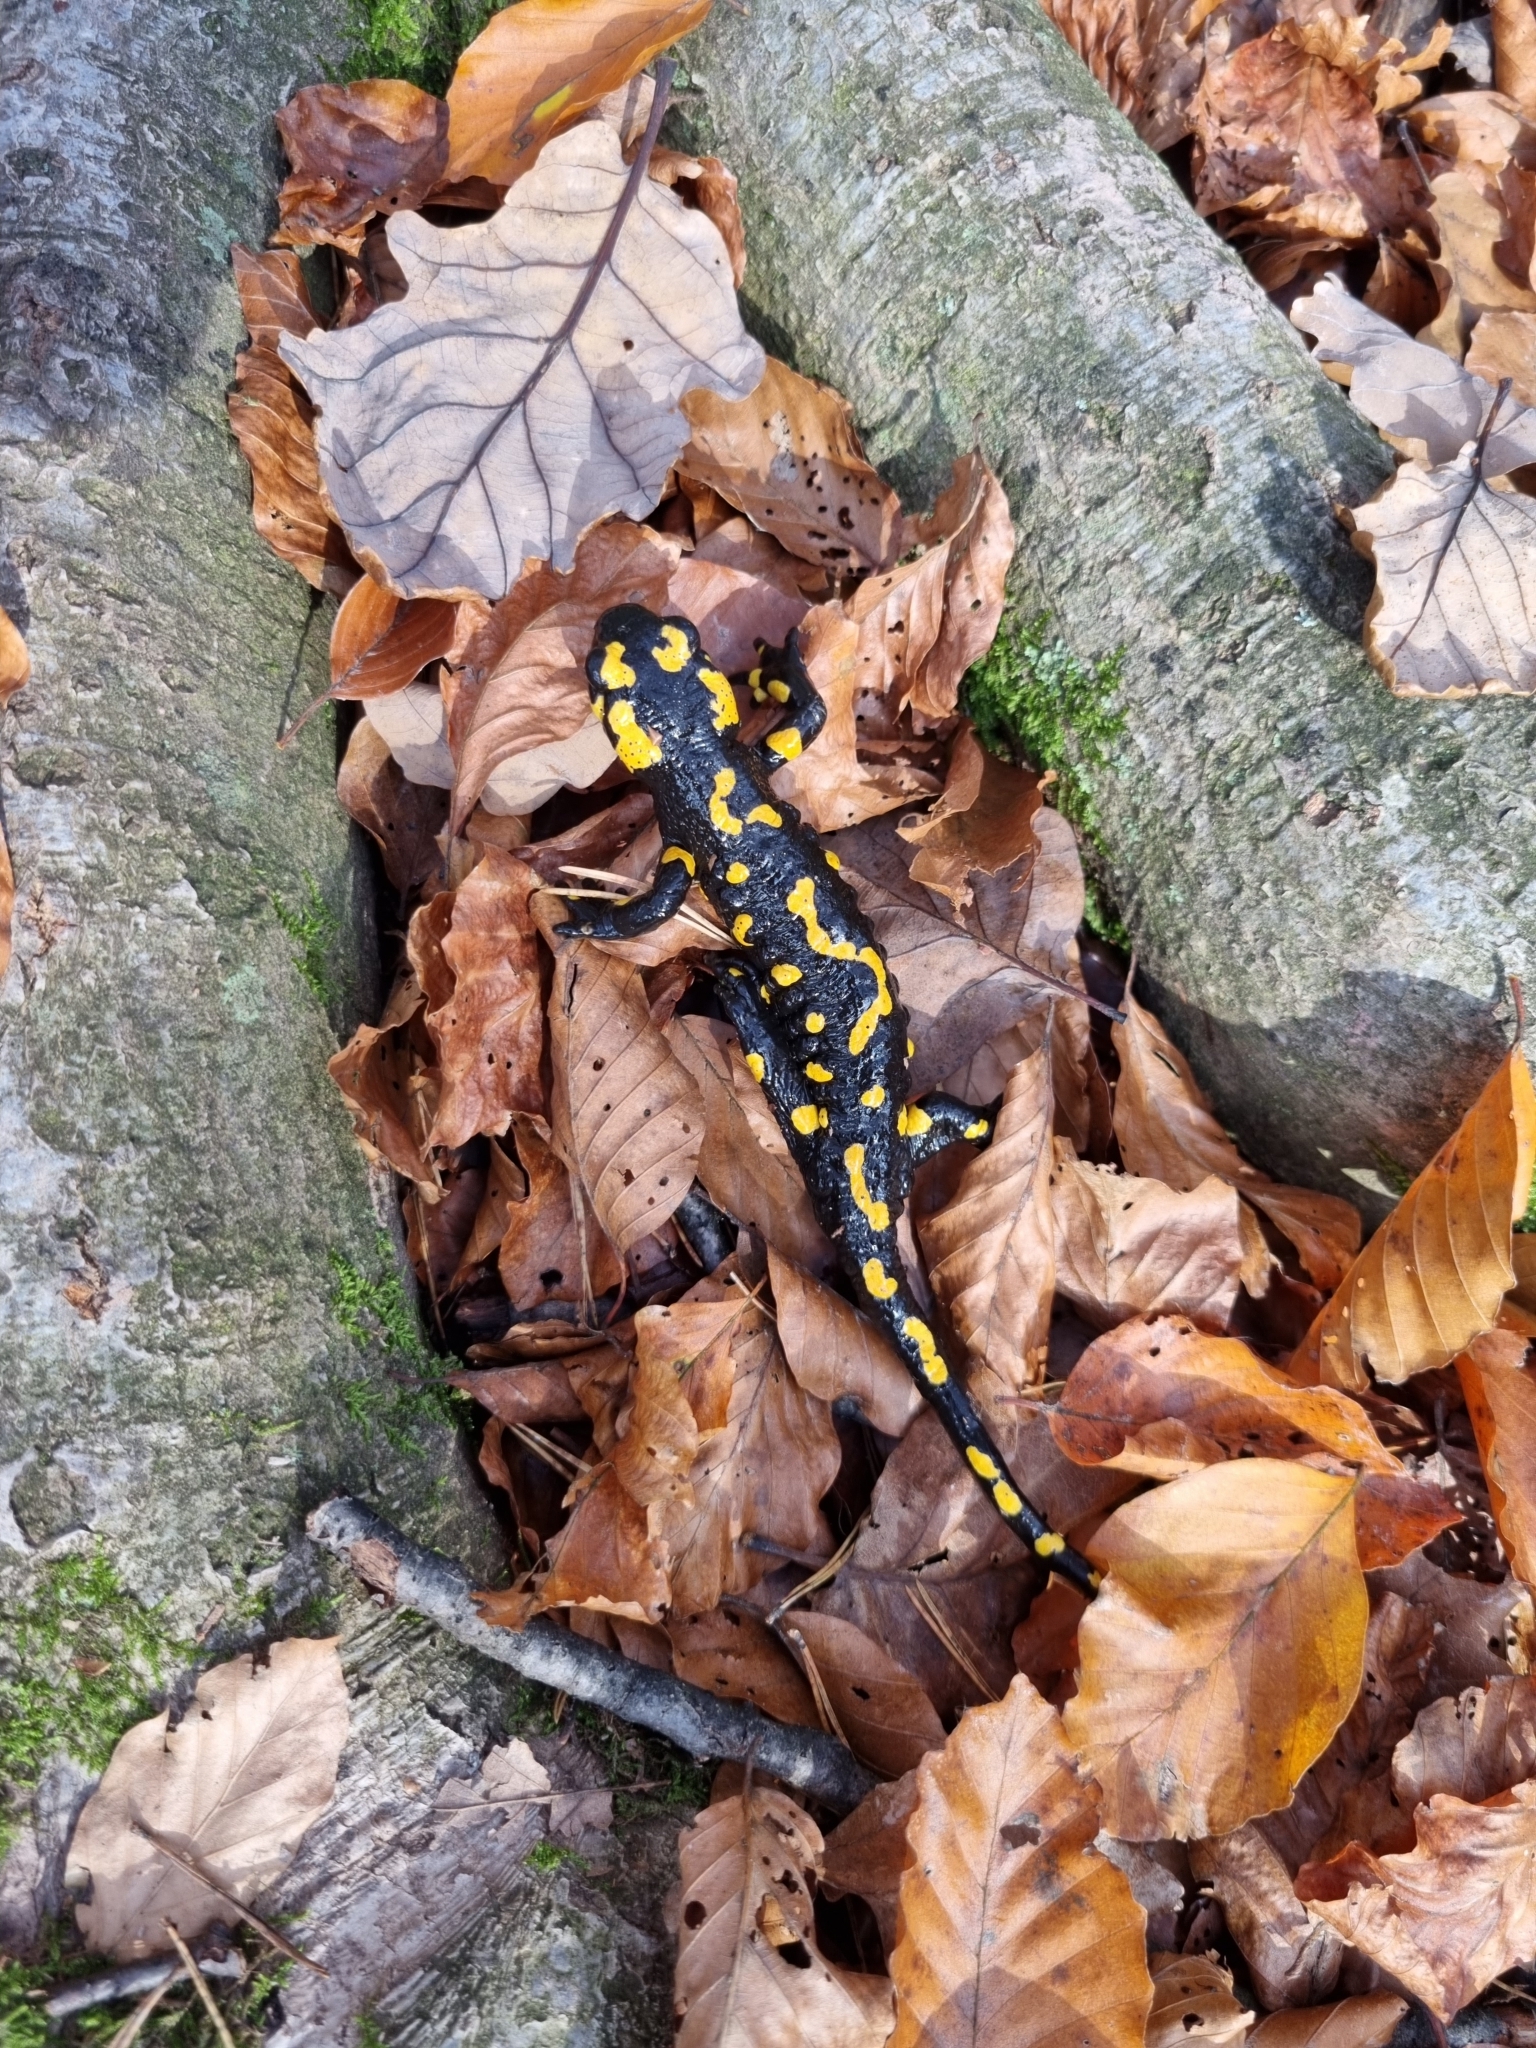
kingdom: Animalia
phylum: Chordata
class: Amphibia
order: Caudata
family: Salamandridae
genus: Salamandra
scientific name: Salamandra salamandra
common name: Fire salamander
